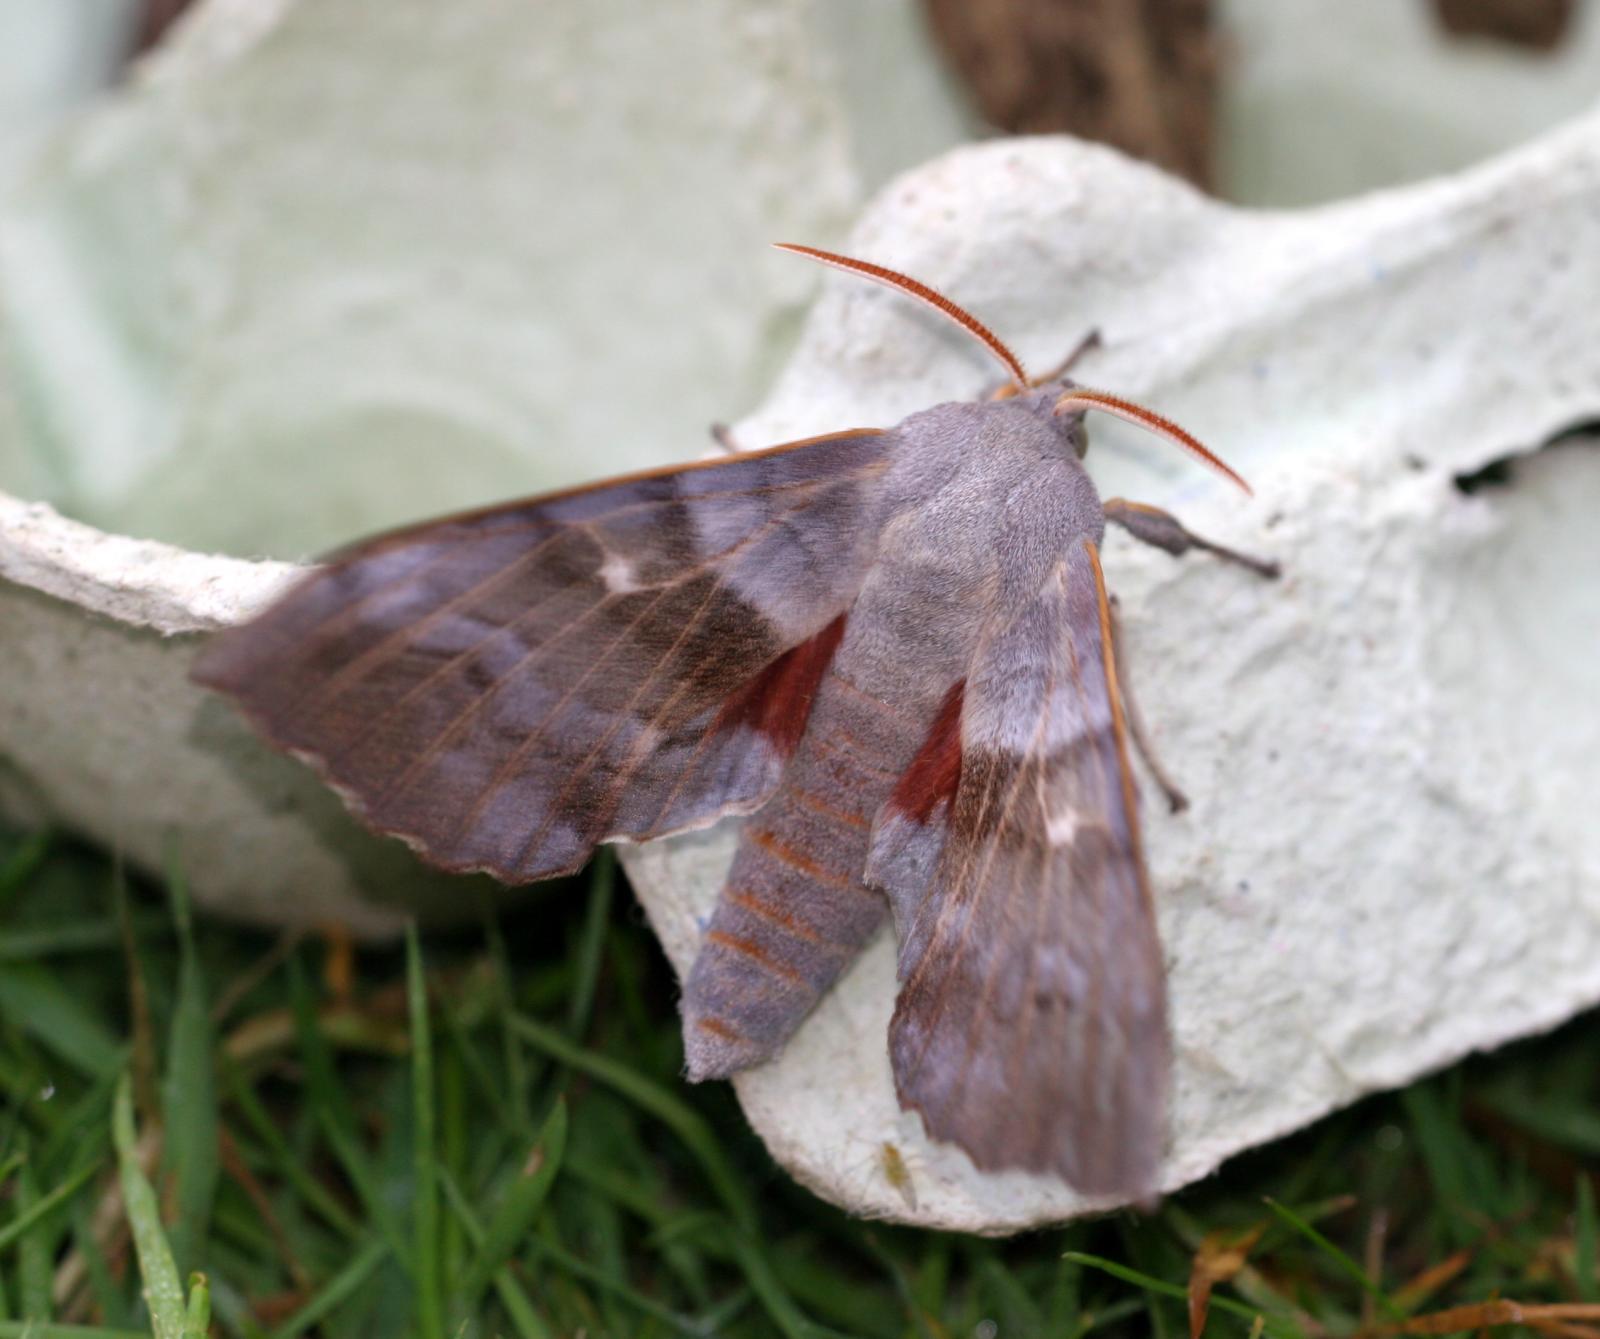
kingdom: Animalia
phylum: Arthropoda
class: Insecta
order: Lepidoptera
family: Sphingidae
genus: Laothoe
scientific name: Laothoe populi
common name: Poplar hawk-moth
